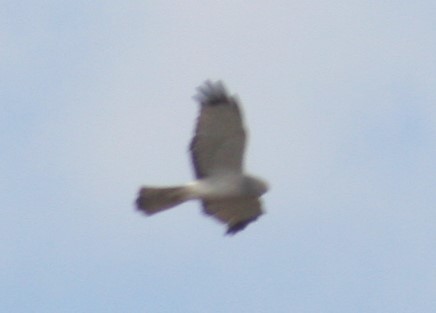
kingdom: Animalia
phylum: Chordata
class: Aves
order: Accipitriformes
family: Accipitridae
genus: Circus
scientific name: Circus cyaneus
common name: Hen harrier
